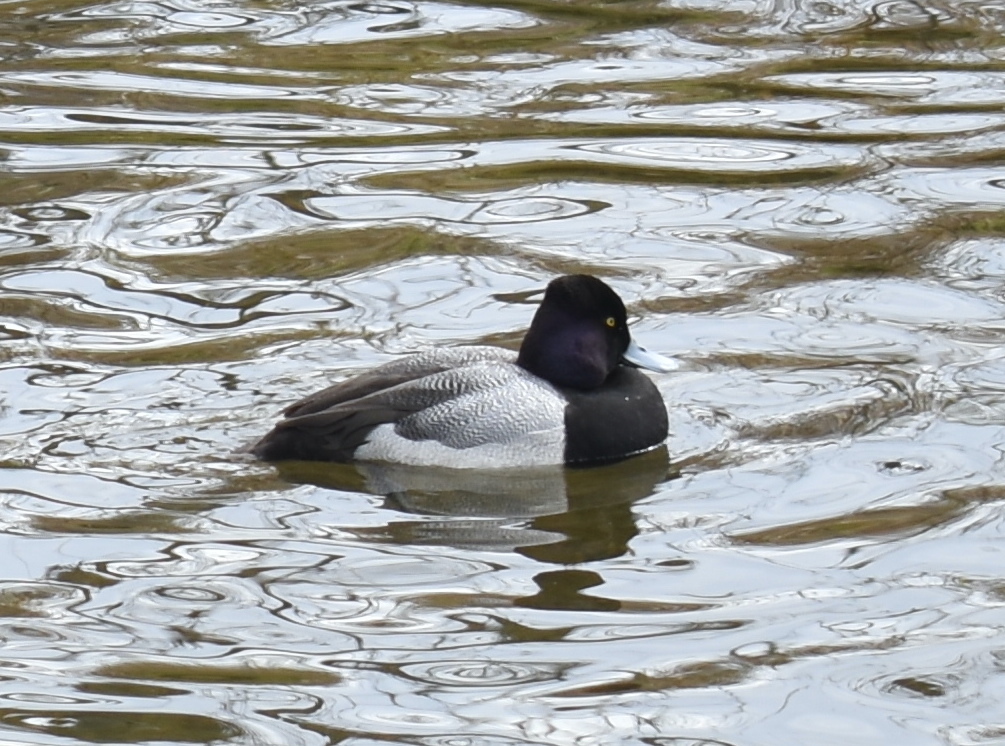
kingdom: Animalia
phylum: Chordata
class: Aves
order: Anseriformes
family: Anatidae
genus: Aythya
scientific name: Aythya affinis
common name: Lesser scaup
